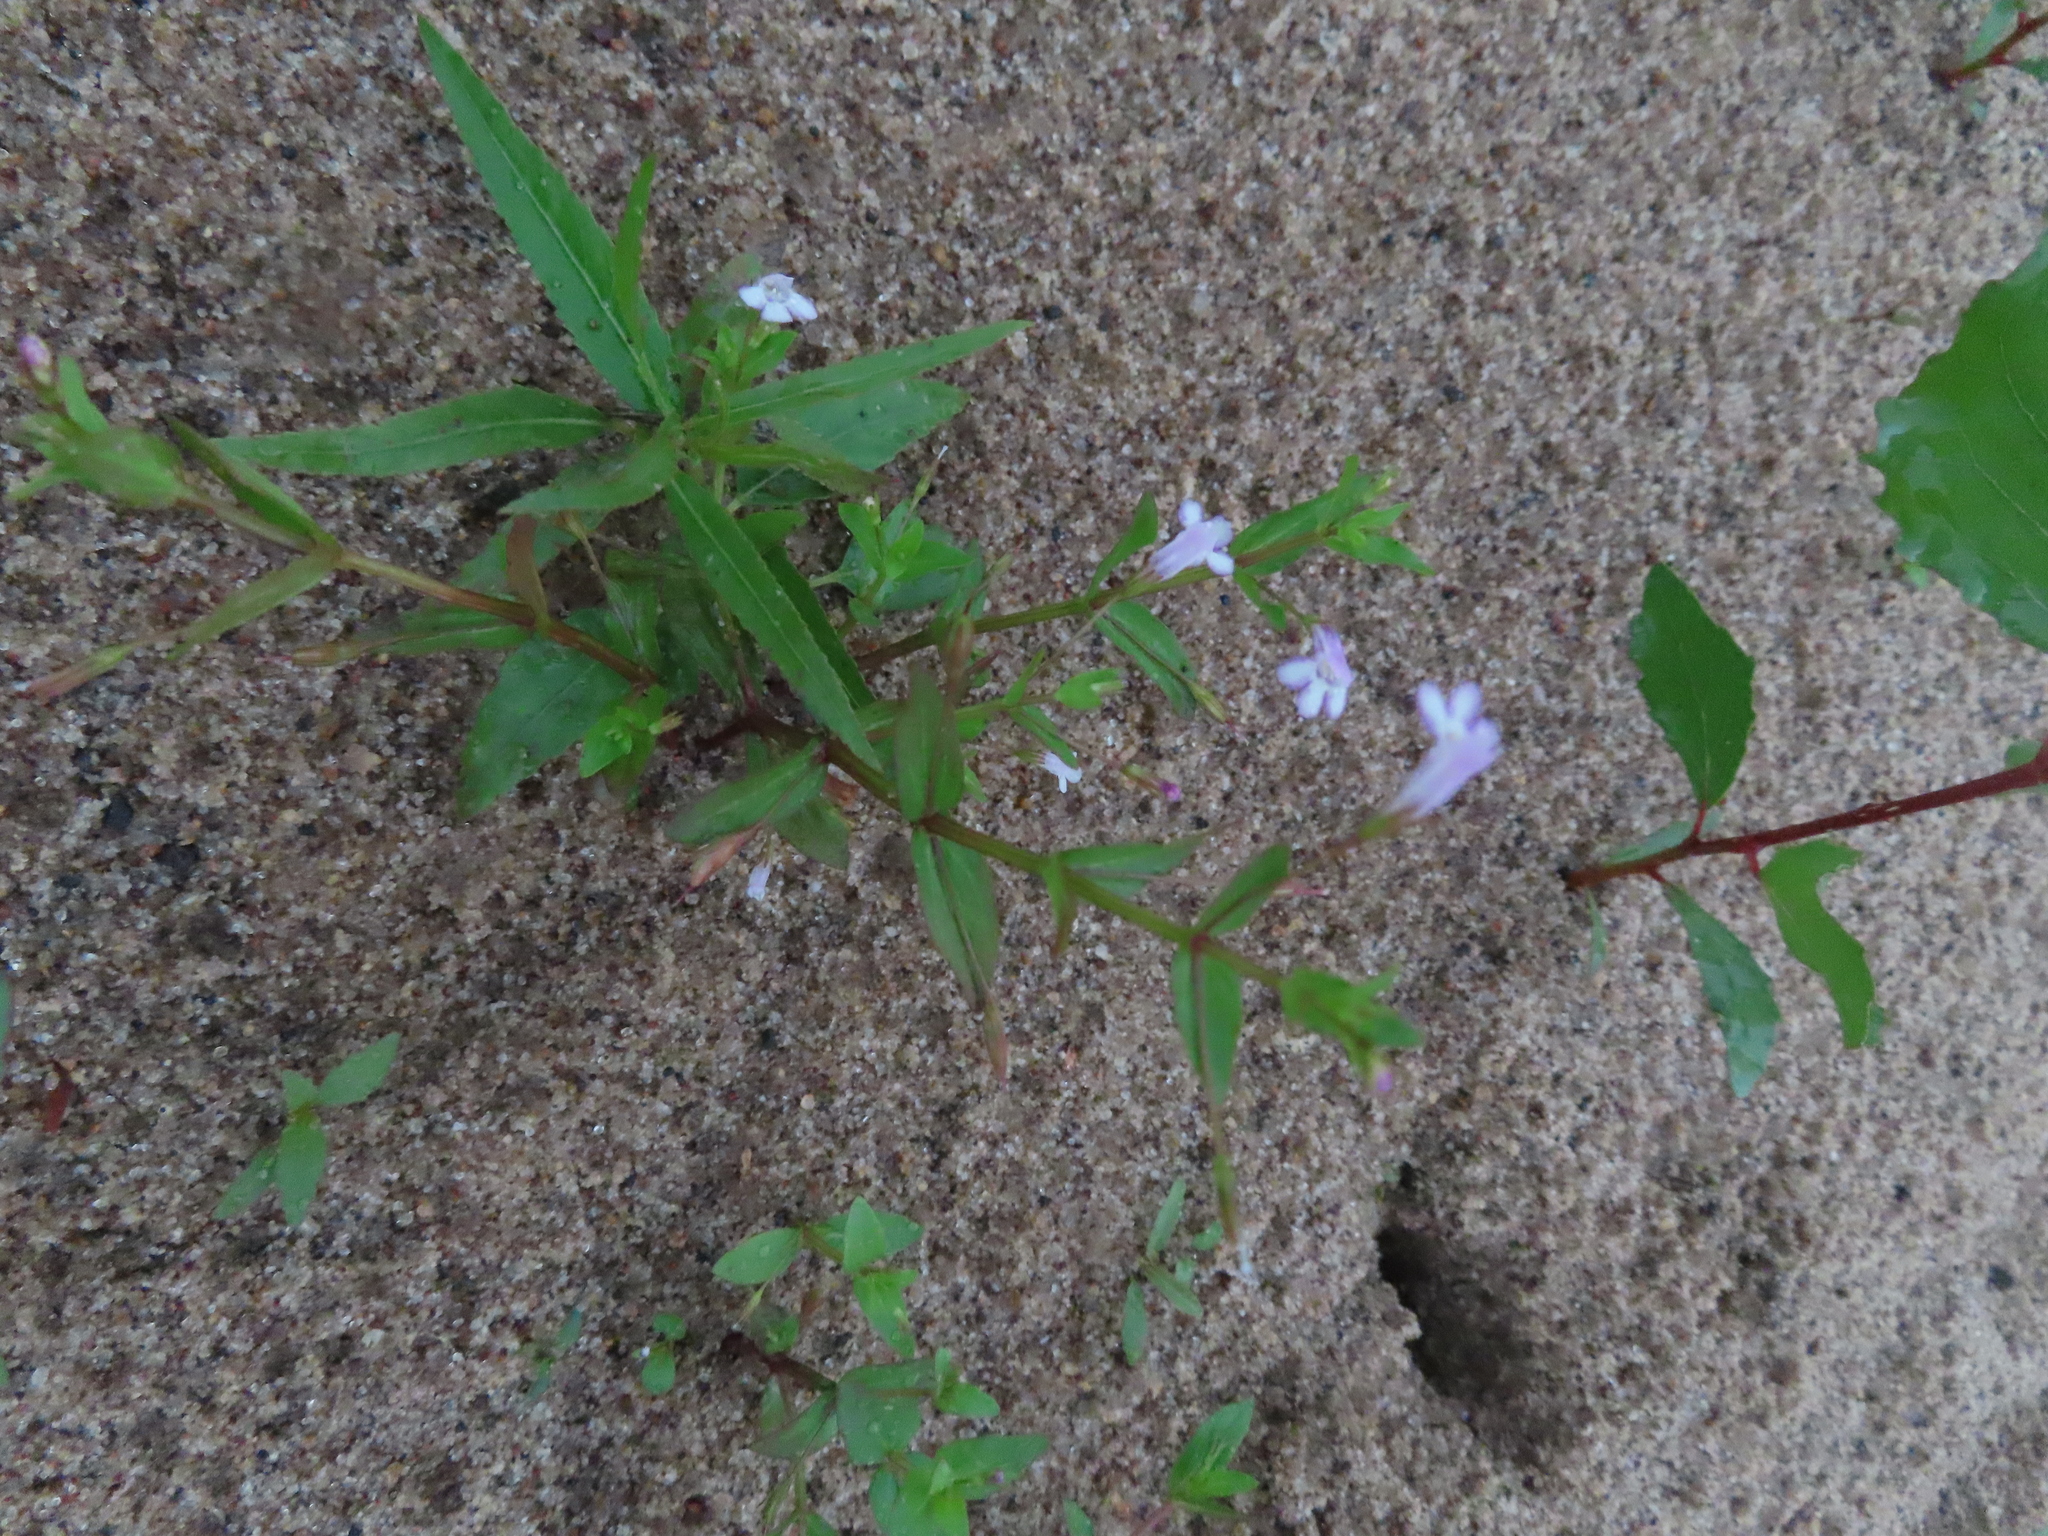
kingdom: Plantae
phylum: Tracheophyta
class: Magnoliopsida
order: Lamiales
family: Linderniaceae
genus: Lindernia
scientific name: Lindernia dubia
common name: Annual false pimpernel
